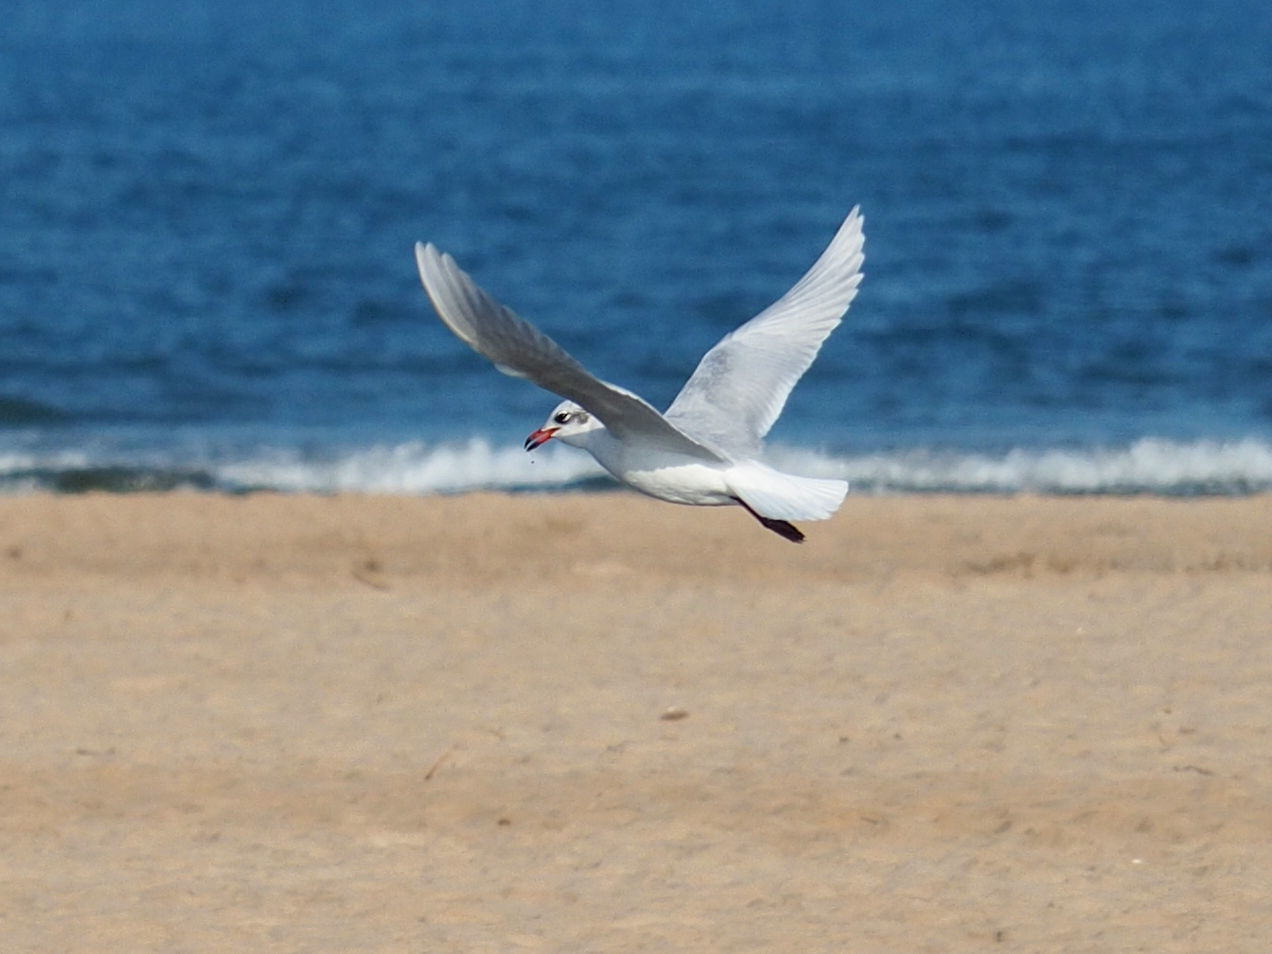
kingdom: Animalia
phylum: Chordata
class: Aves
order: Charadriiformes
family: Laridae
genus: Ichthyaetus
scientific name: Ichthyaetus melanocephalus
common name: Mediterranean gull
